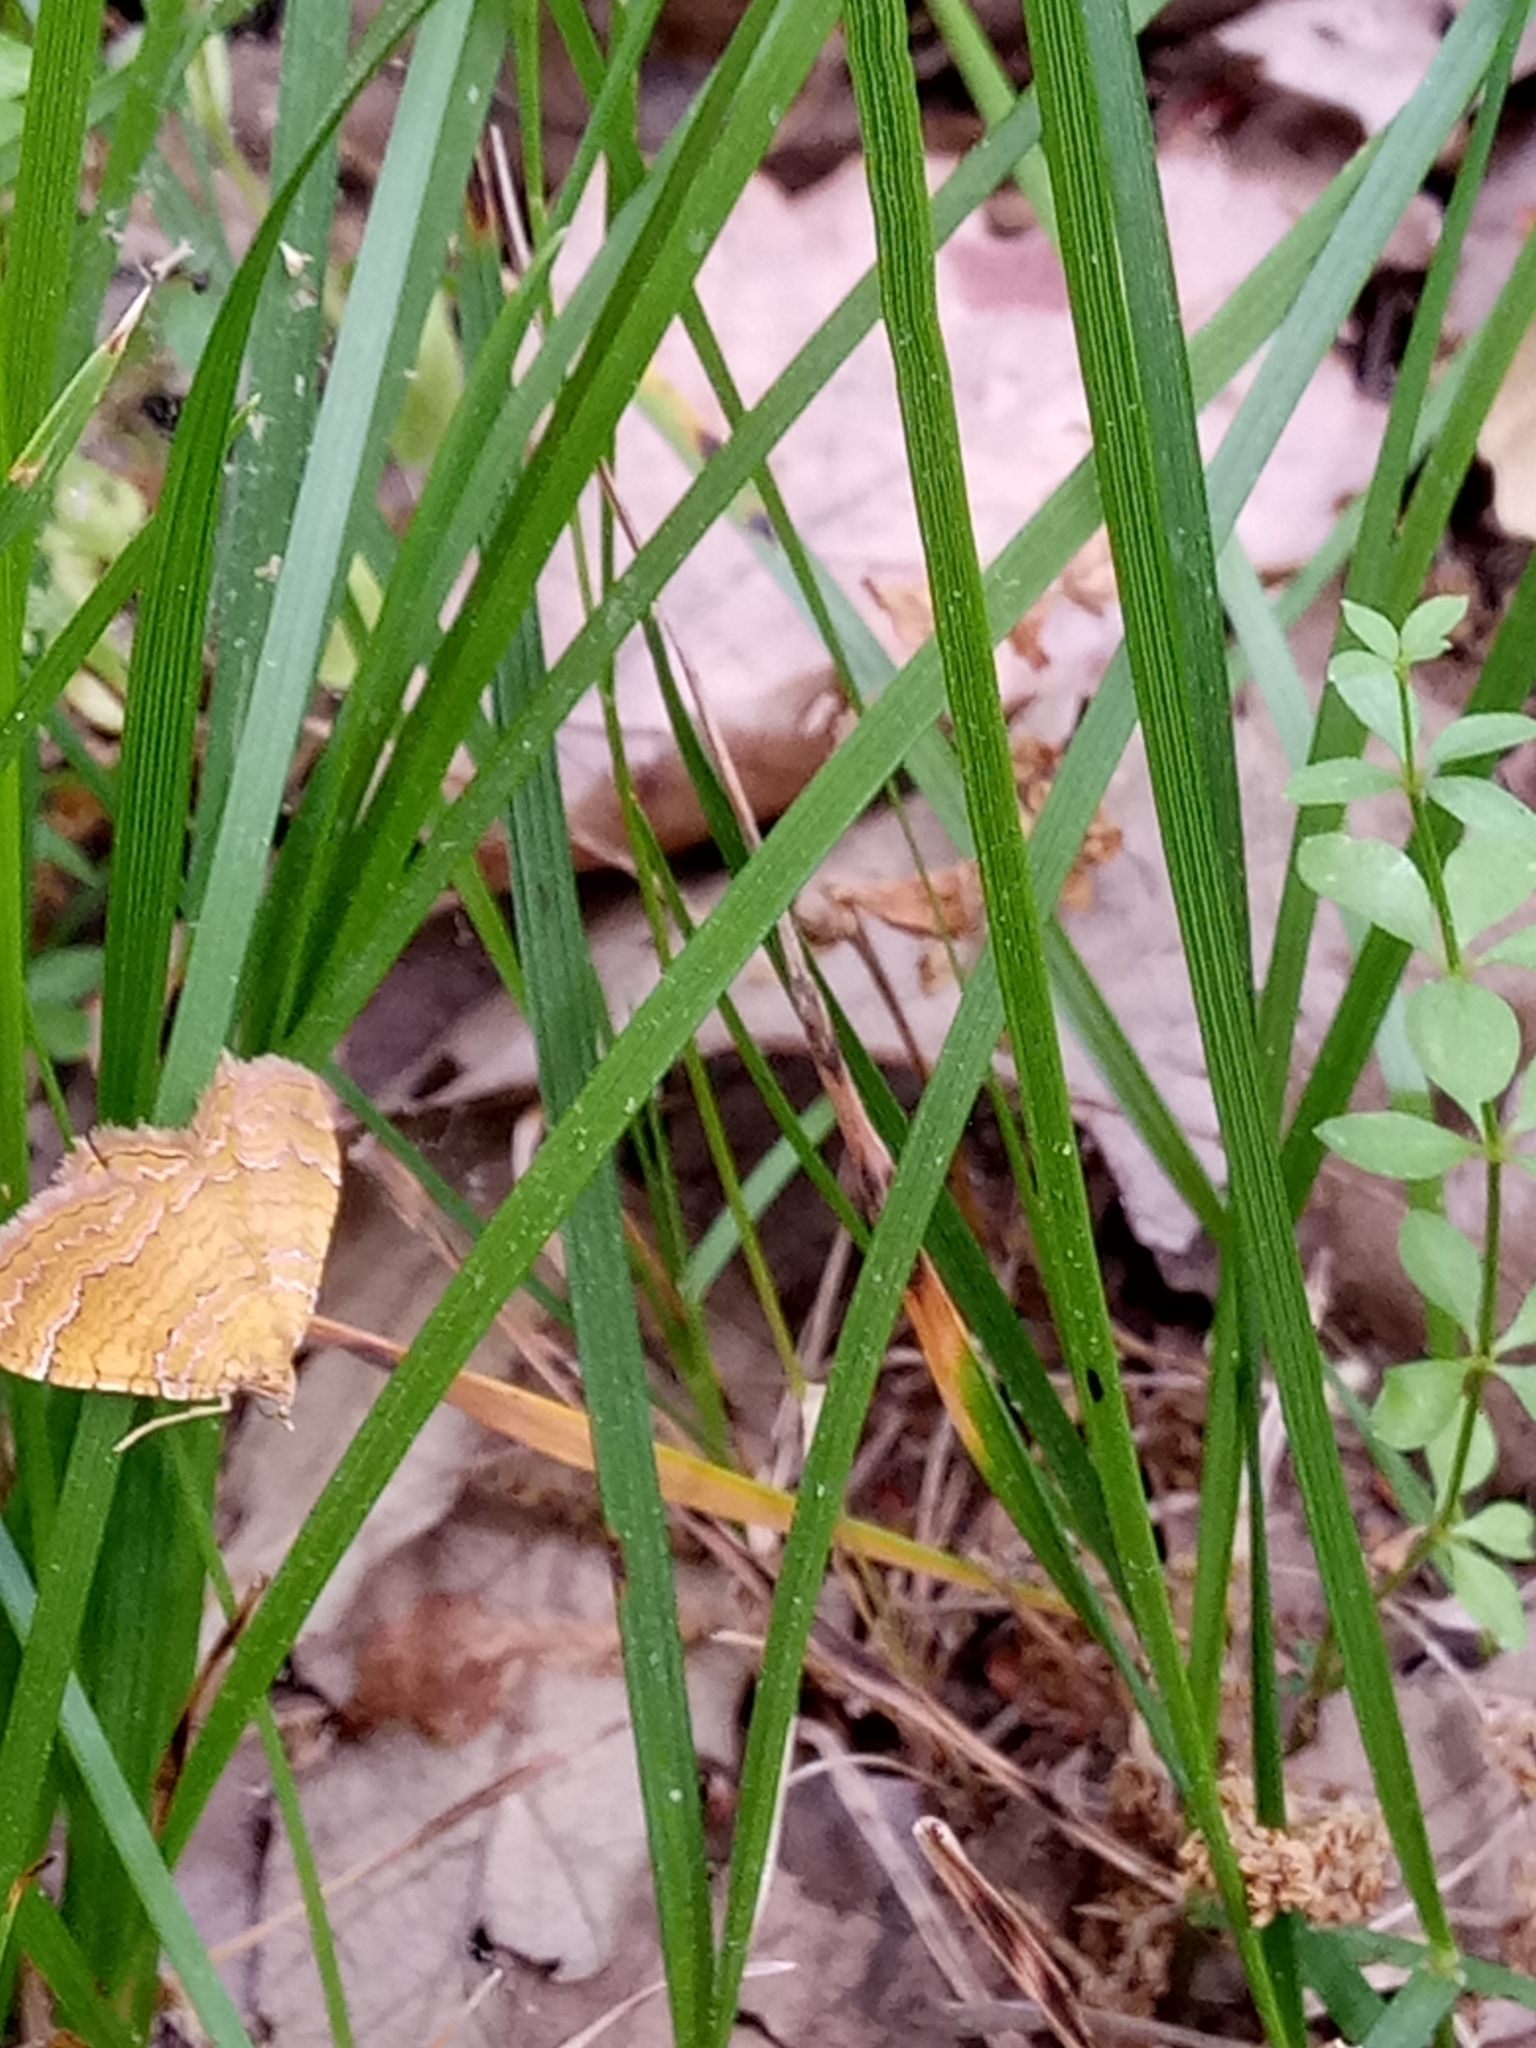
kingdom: Animalia
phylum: Arthropoda
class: Insecta
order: Lepidoptera
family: Geometridae
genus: Camptogramma
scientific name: Camptogramma bilineata
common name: Yellow shell
